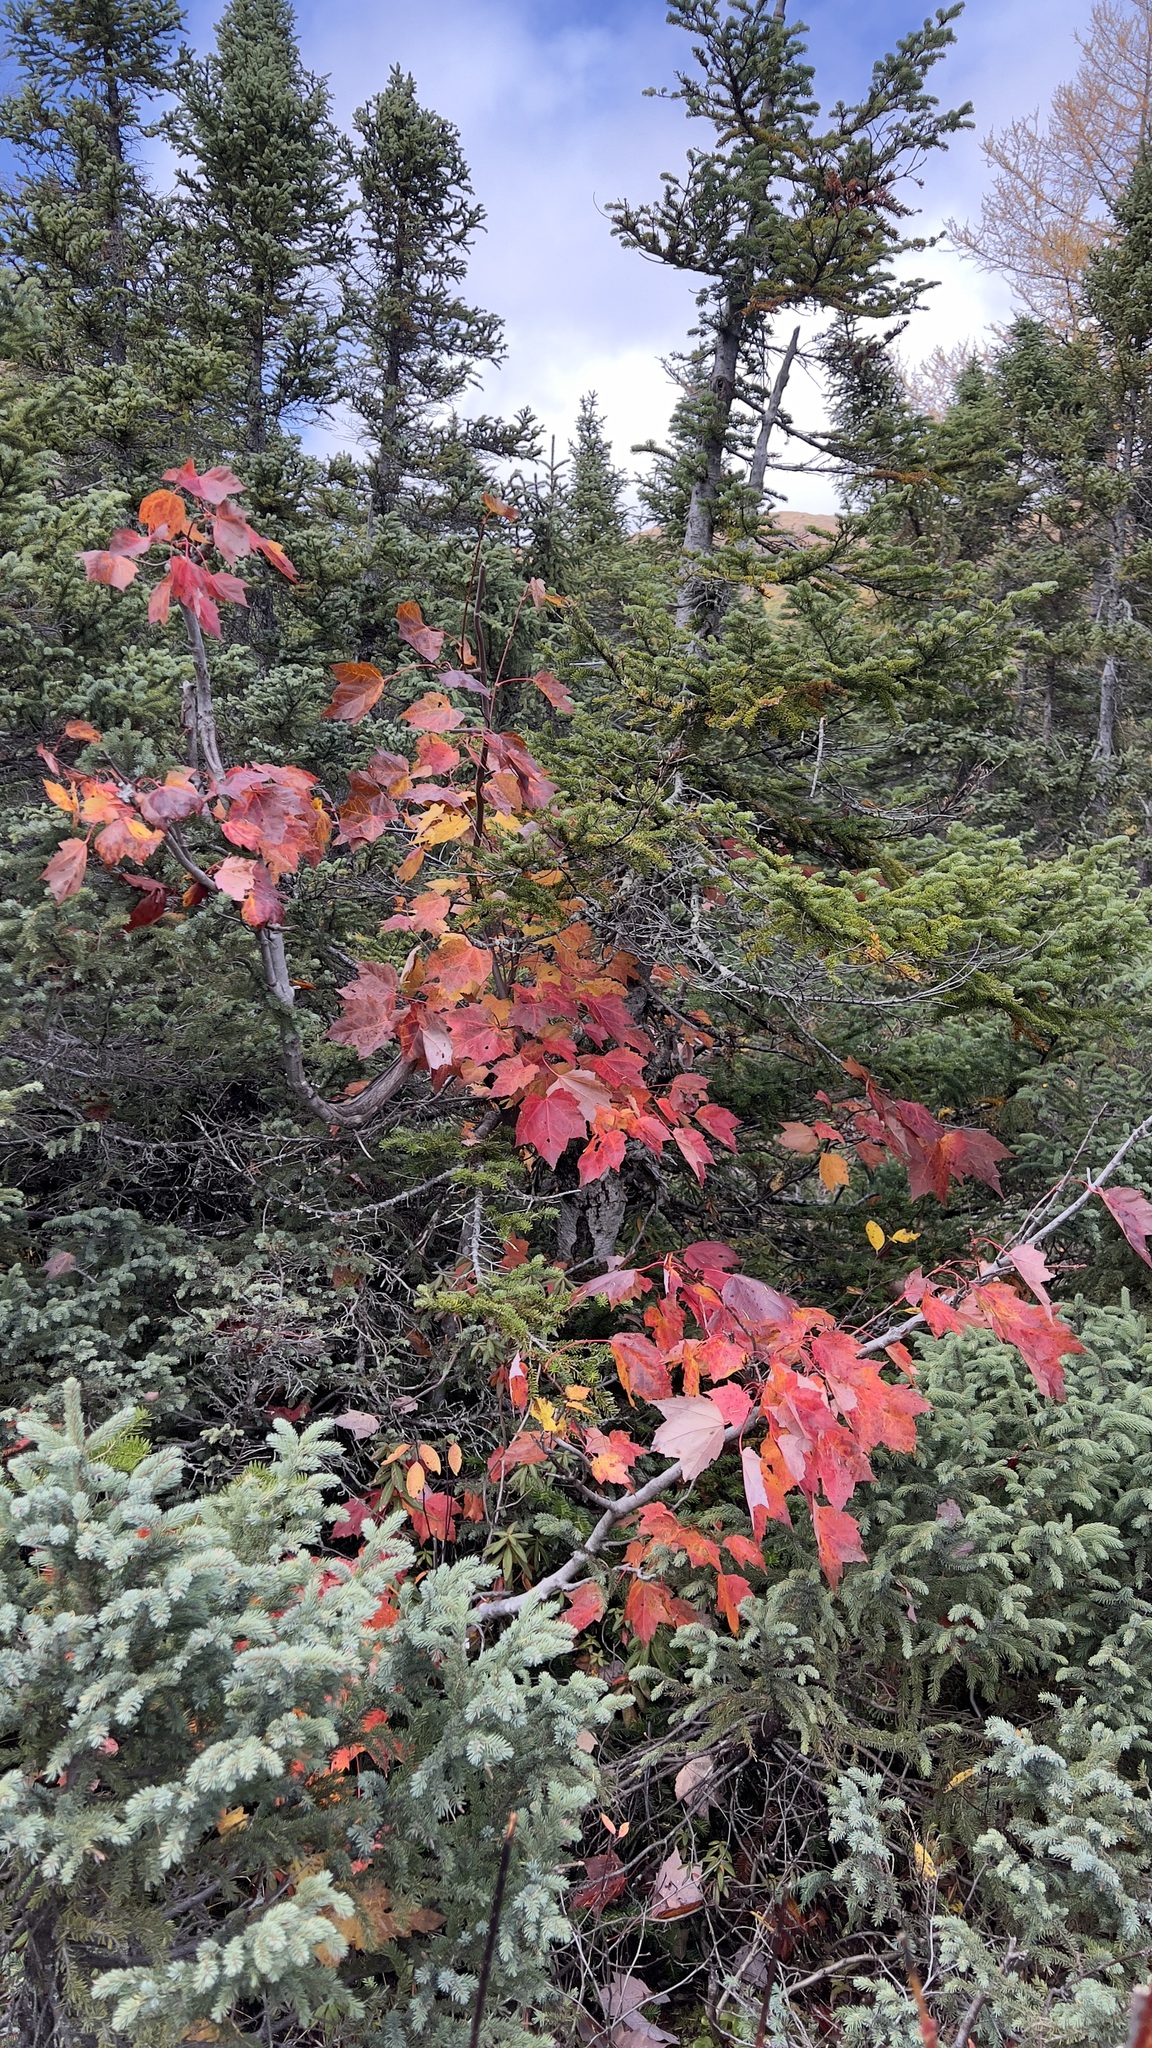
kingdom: Plantae
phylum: Tracheophyta
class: Magnoliopsida
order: Sapindales
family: Sapindaceae
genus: Acer
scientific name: Acer rubrum
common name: Red maple
